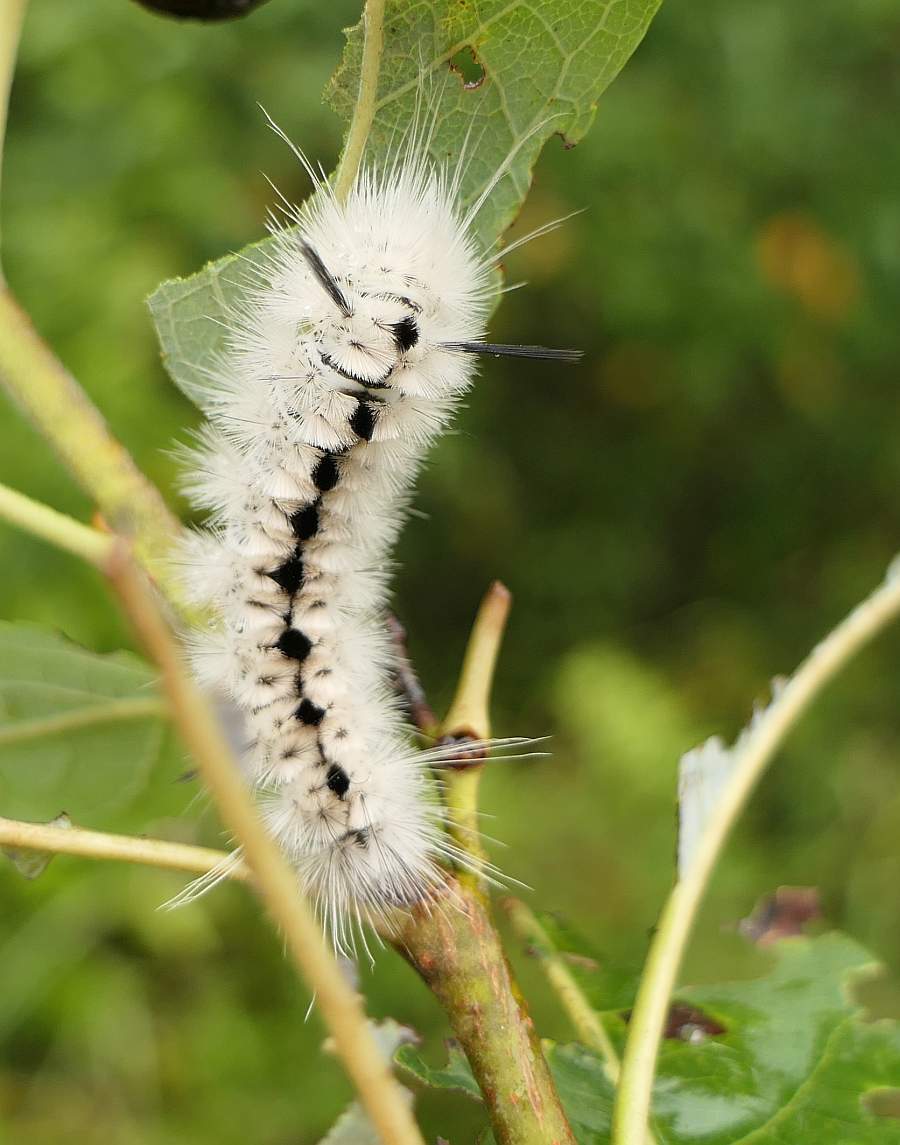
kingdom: Animalia
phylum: Arthropoda
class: Insecta
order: Lepidoptera
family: Erebidae
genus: Lophocampa
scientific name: Lophocampa caryae
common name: Hickory tussock moth
